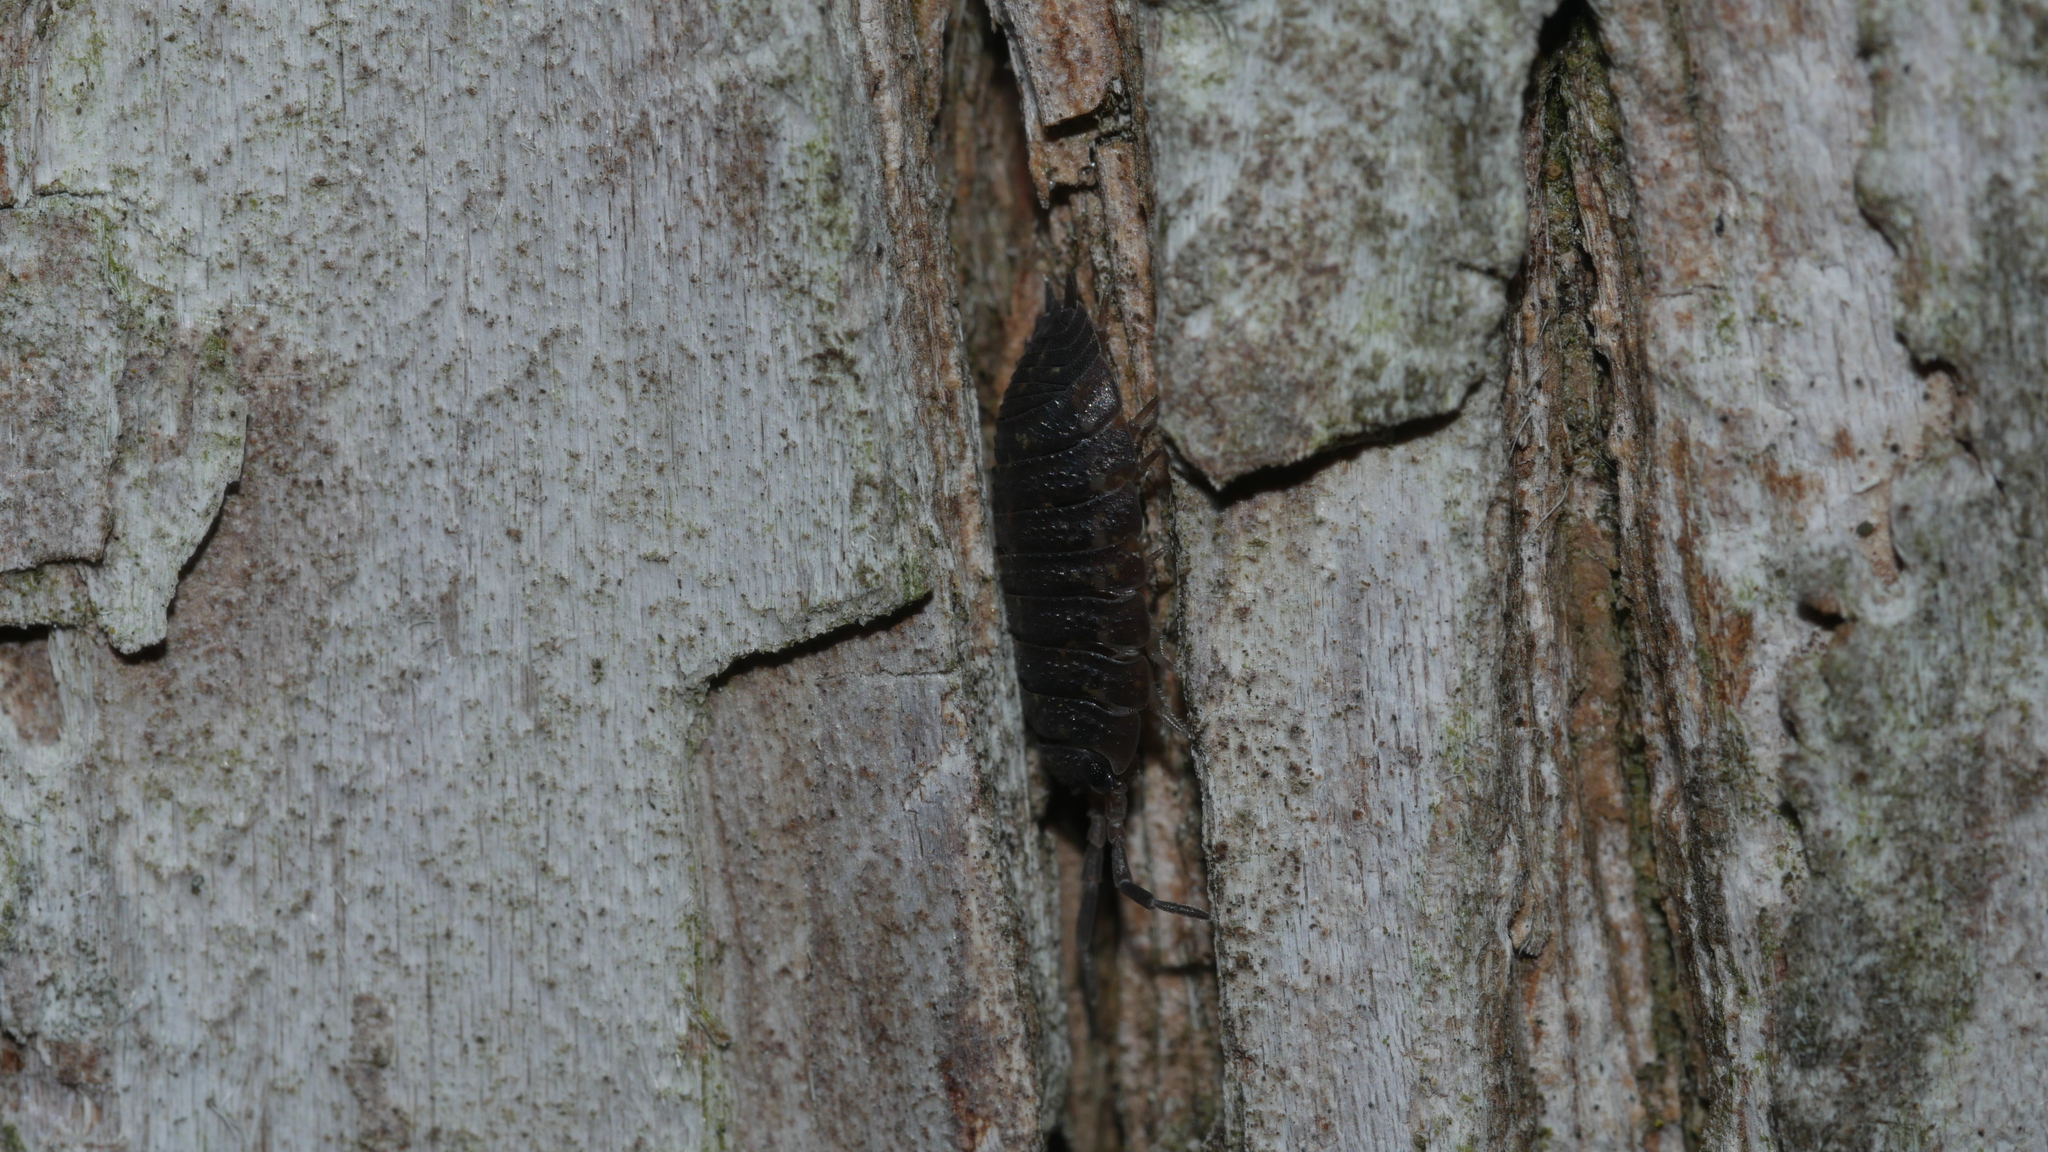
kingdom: Animalia
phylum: Arthropoda
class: Malacostraca
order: Isopoda
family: Porcellionidae
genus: Porcellio
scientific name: Porcellio scaber
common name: Common rough woodlouse
